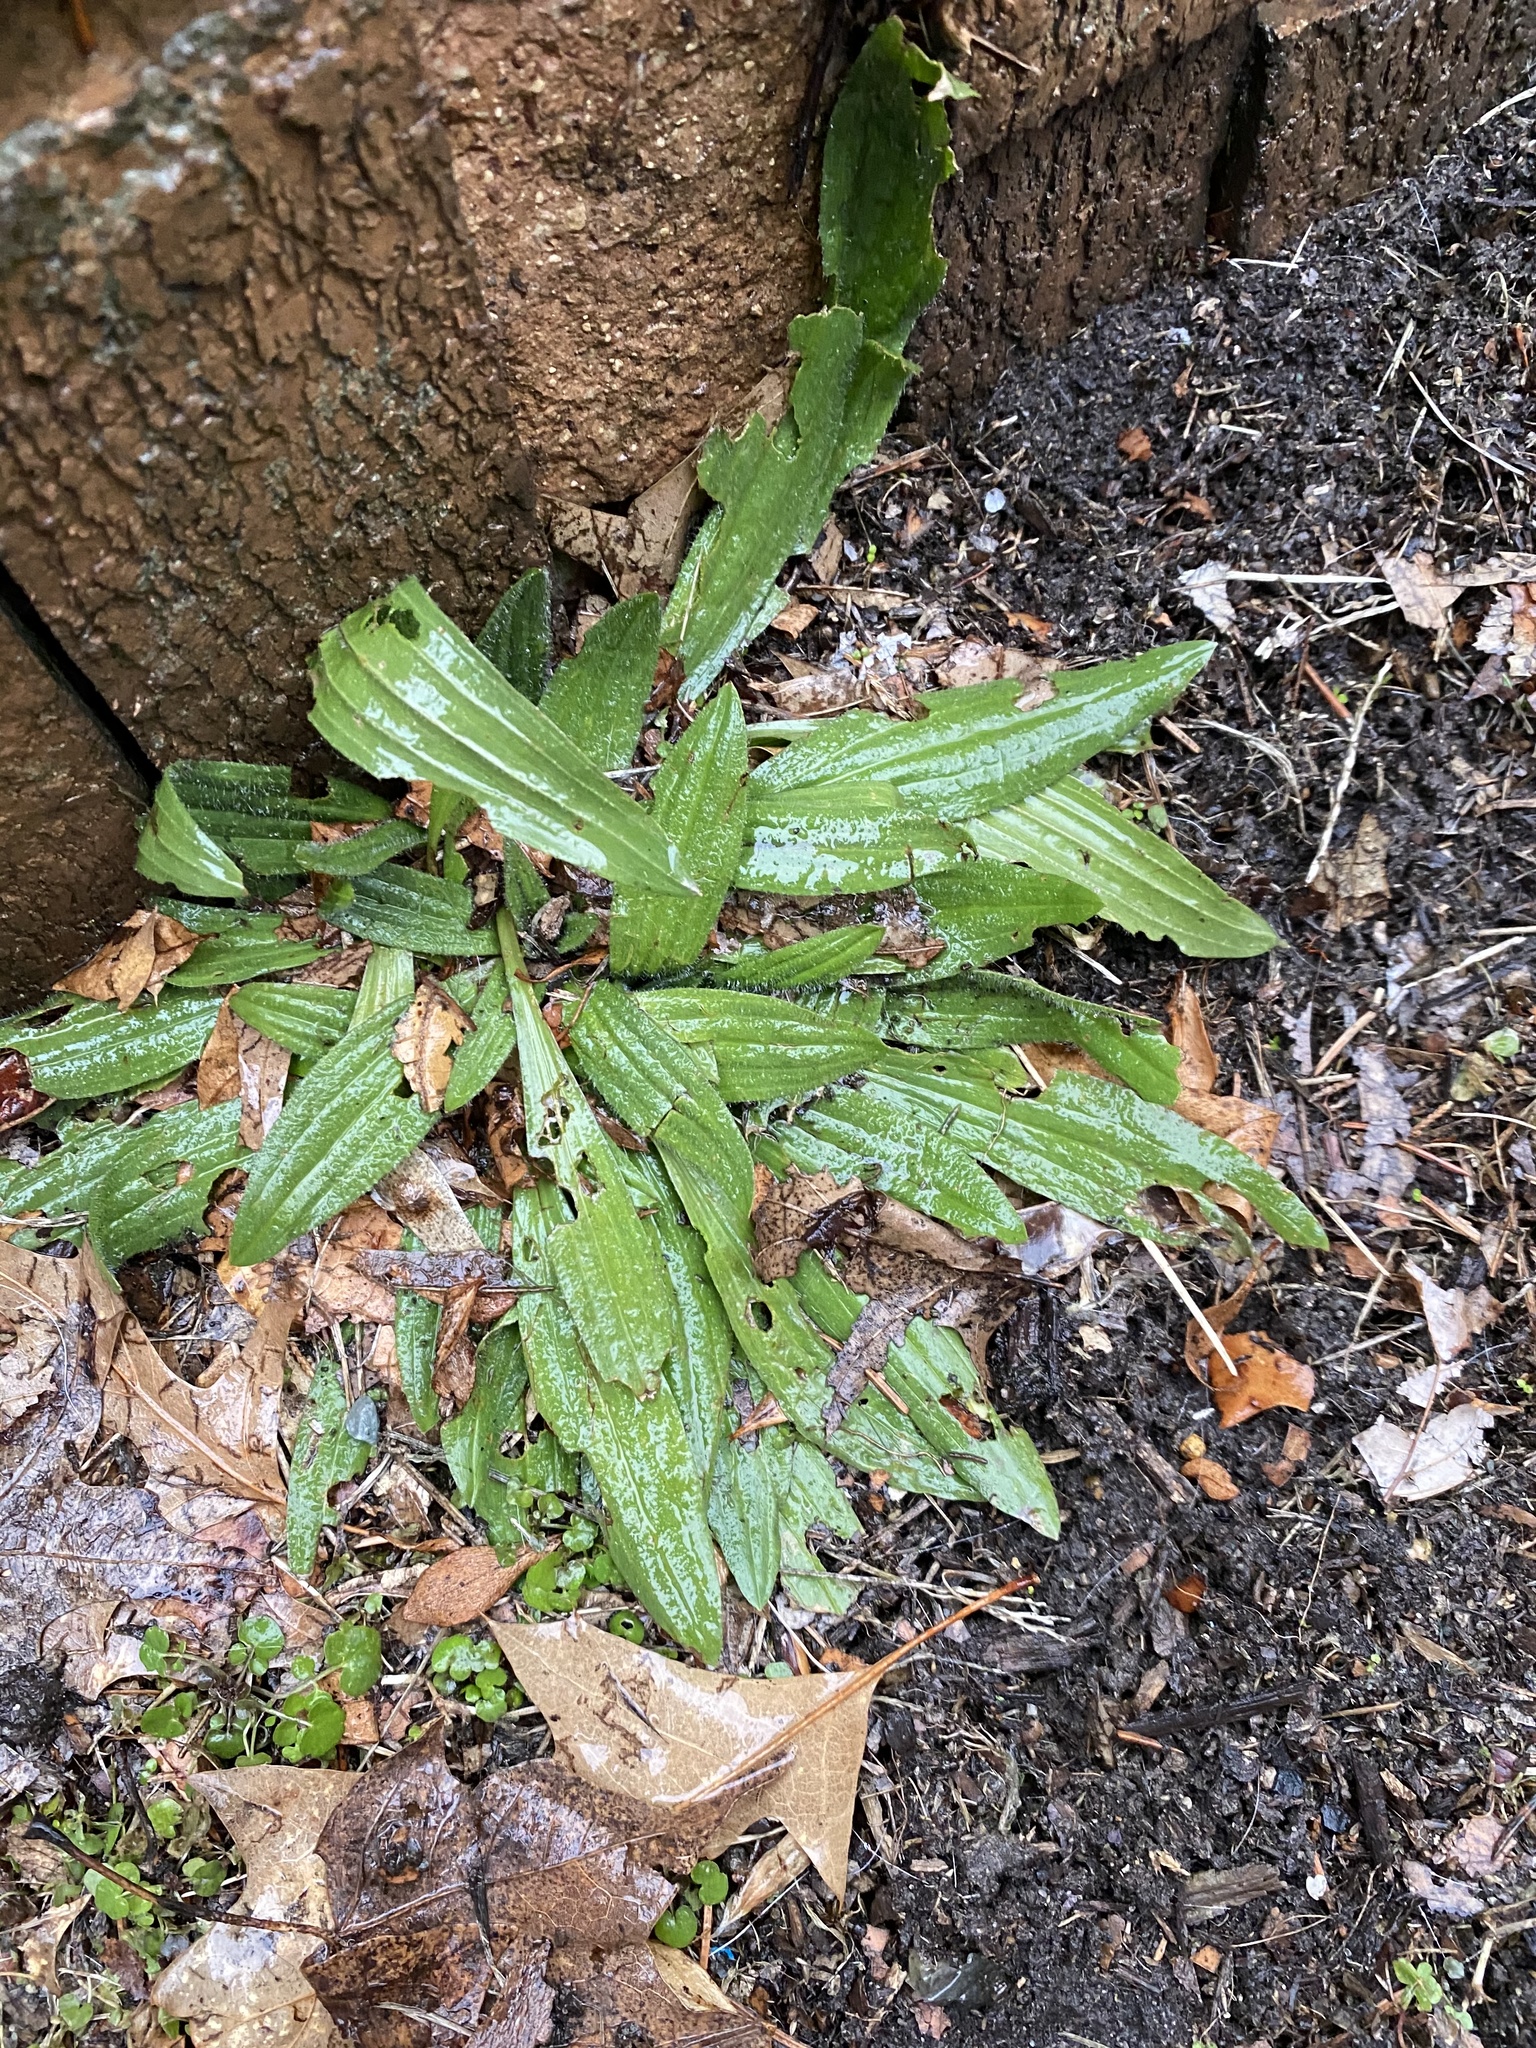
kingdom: Plantae
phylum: Tracheophyta
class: Magnoliopsida
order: Lamiales
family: Plantaginaceae
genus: Plantago
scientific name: Plantago lanceolata
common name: Ribwort plantain
